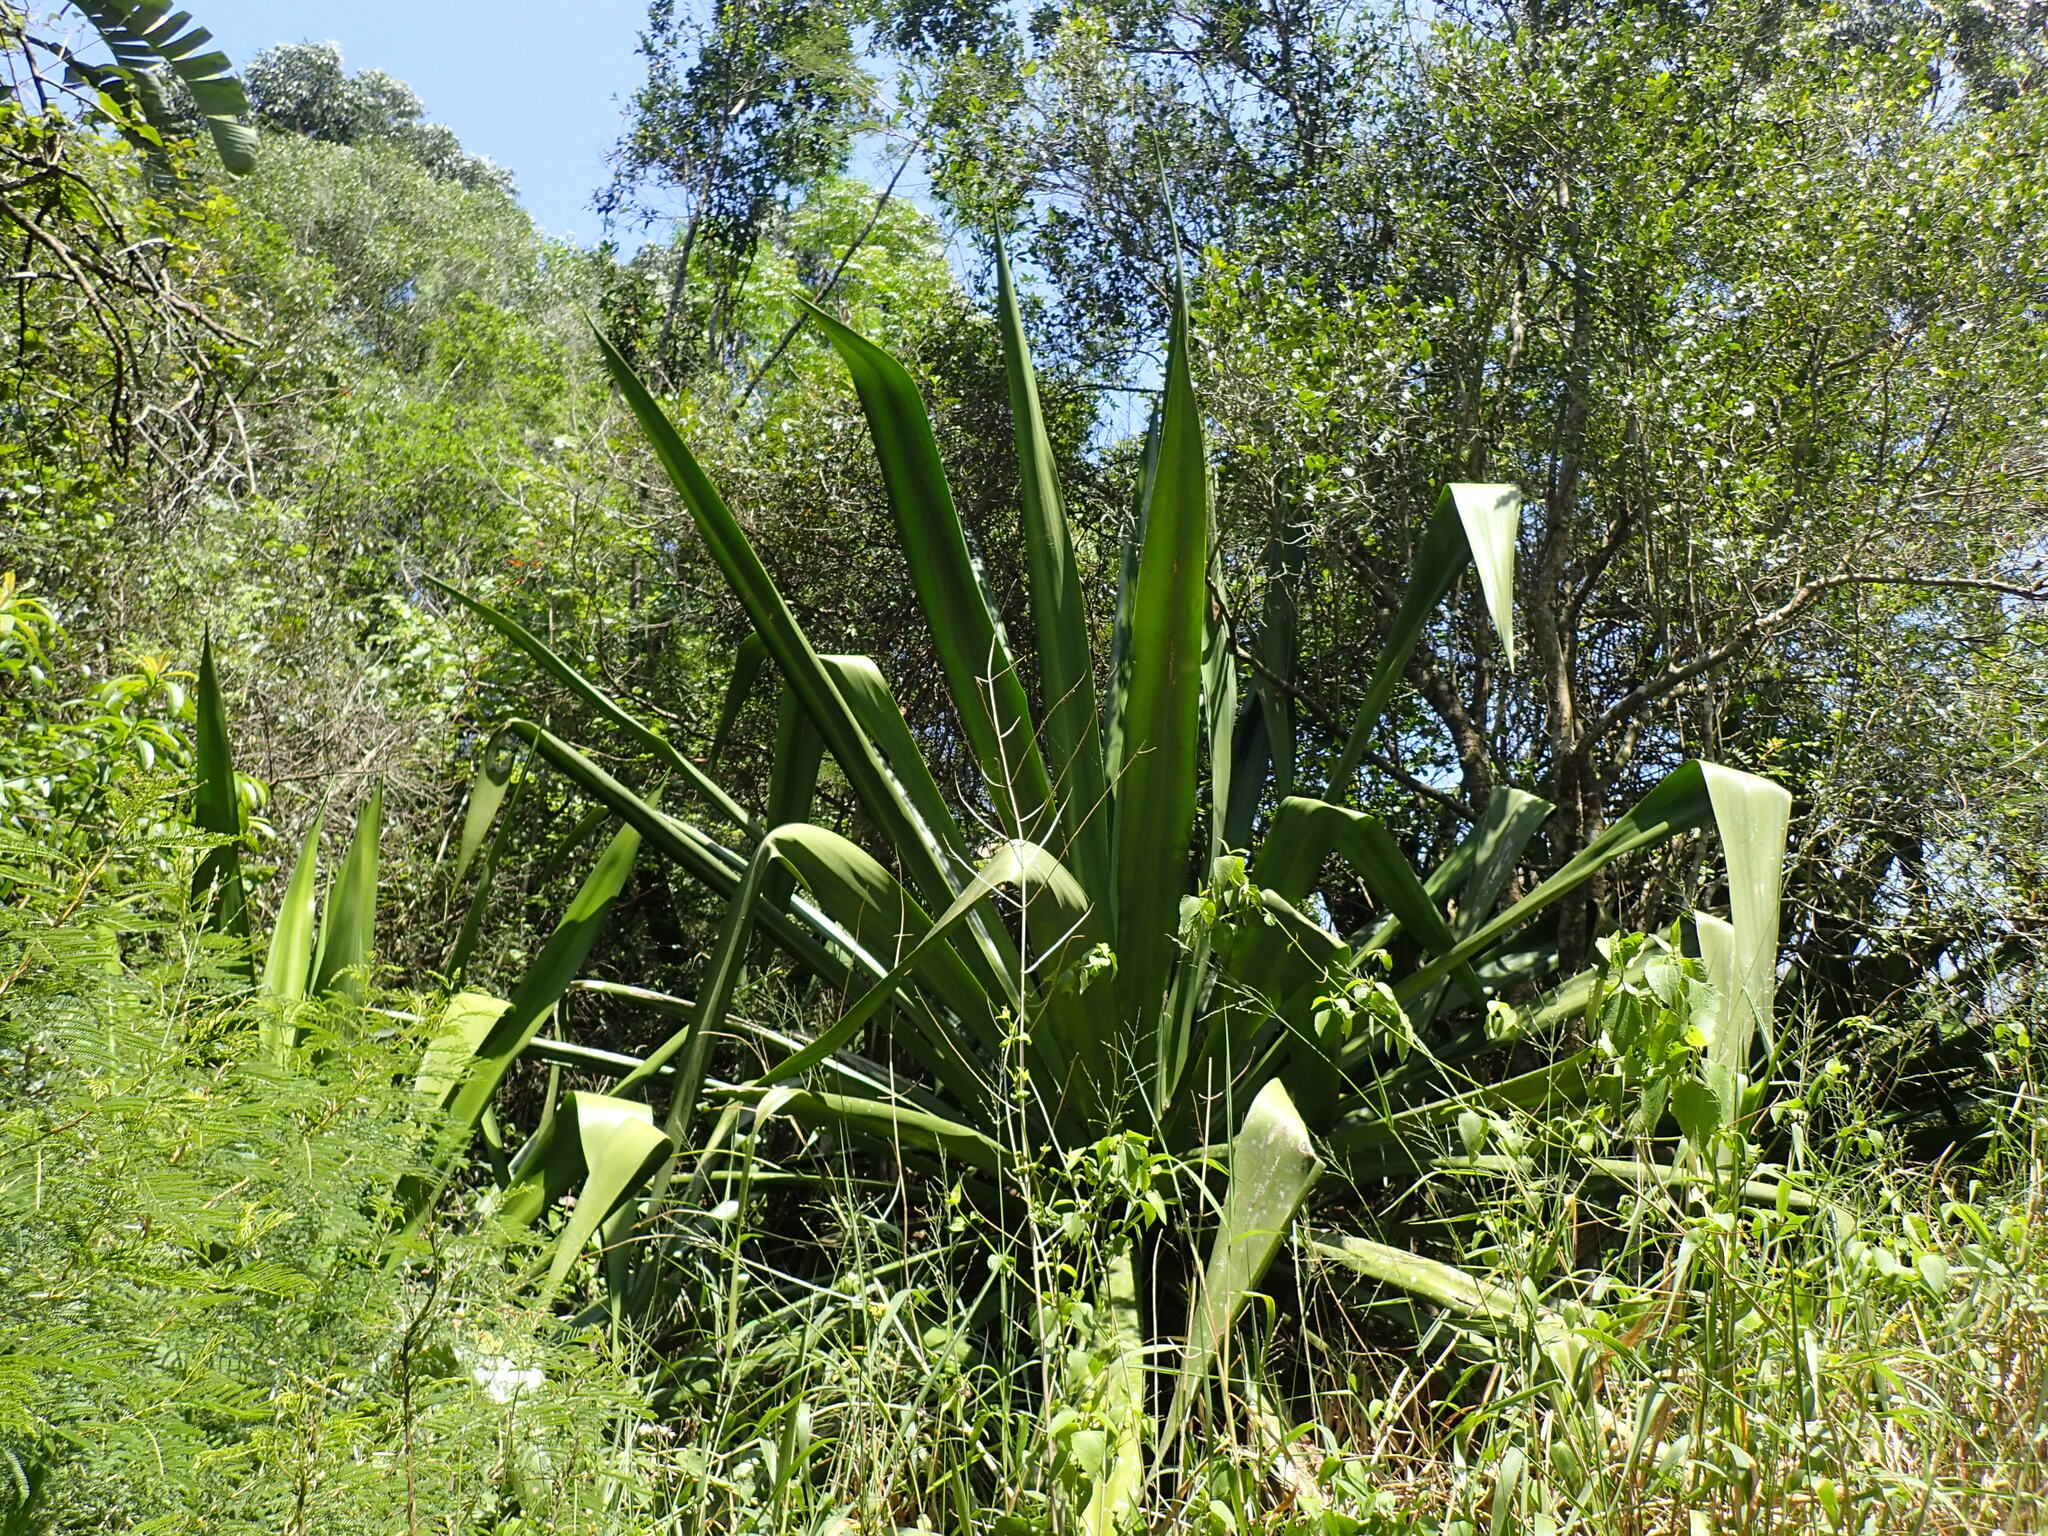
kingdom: Plantae
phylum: Tracheophyta
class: Liliopsida
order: Asparagales
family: Asparagaceae
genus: Furcraea
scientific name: Furcraea foetida
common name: Mauritius hemp
